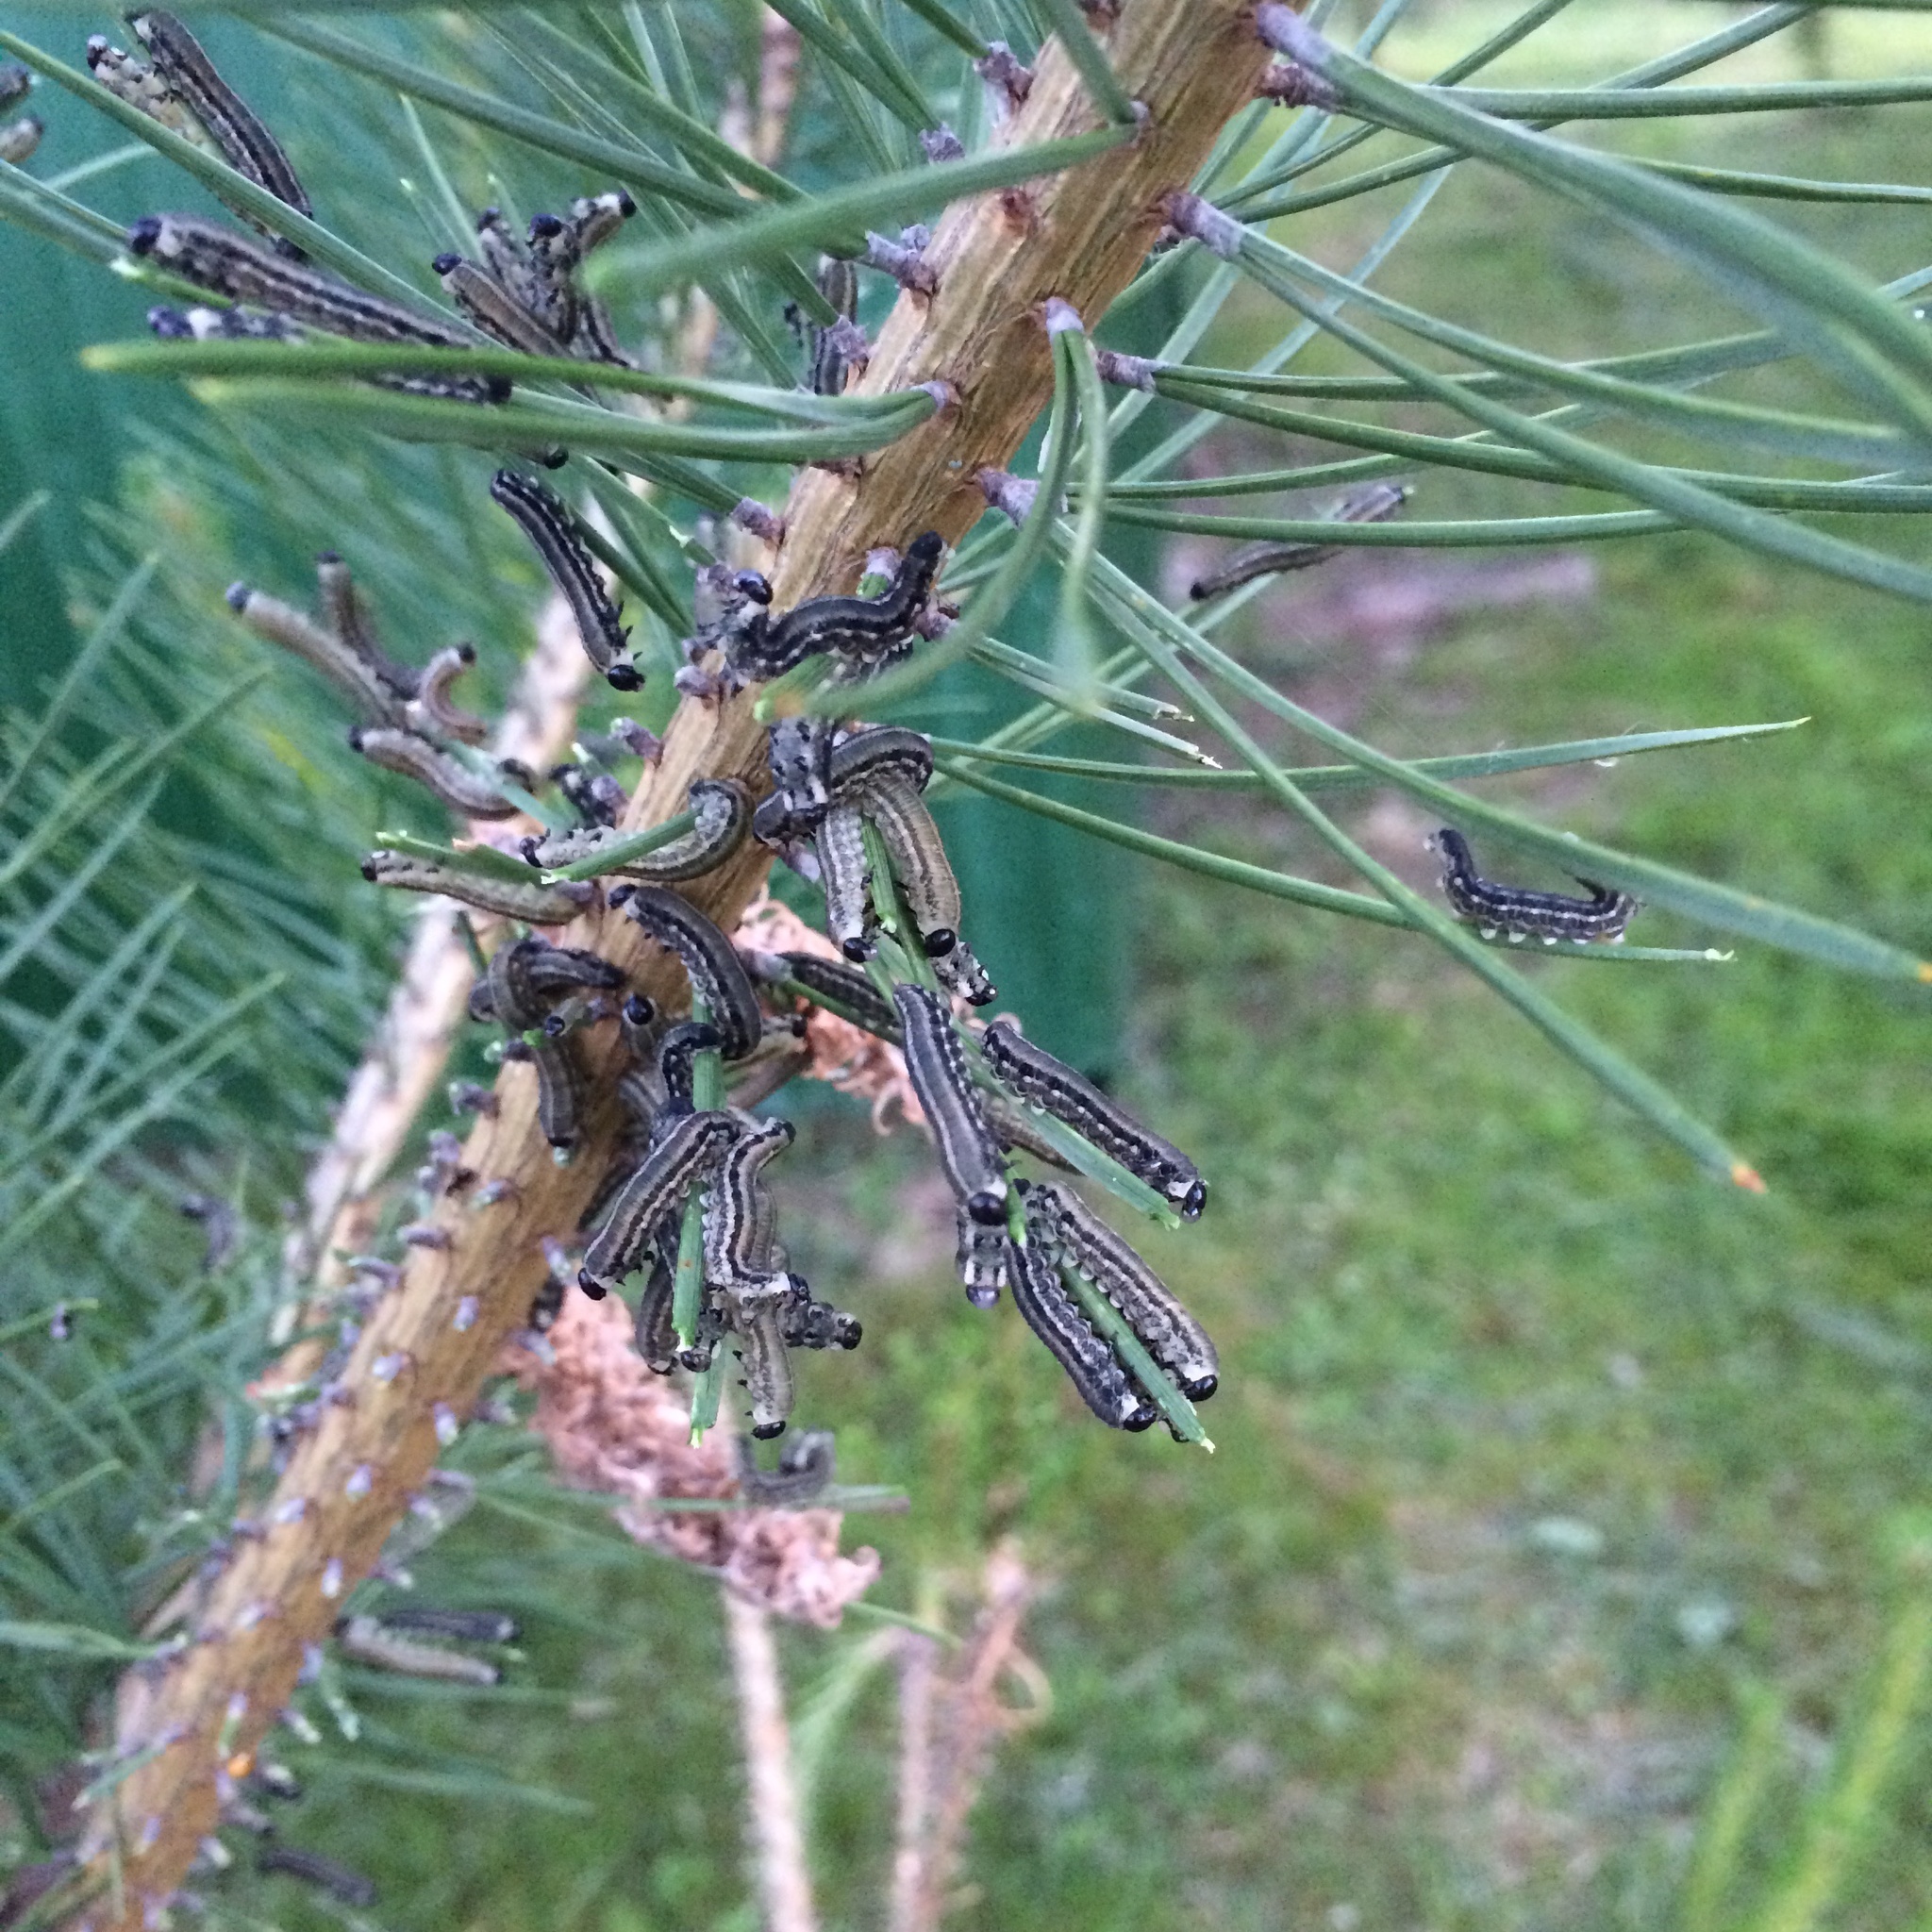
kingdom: Animalia
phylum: Arthropoda
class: Insecta
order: Hymenoptera
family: Diprionidae
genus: Neodiprion
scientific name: Neodiprion sertifer
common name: European pine sawfly
